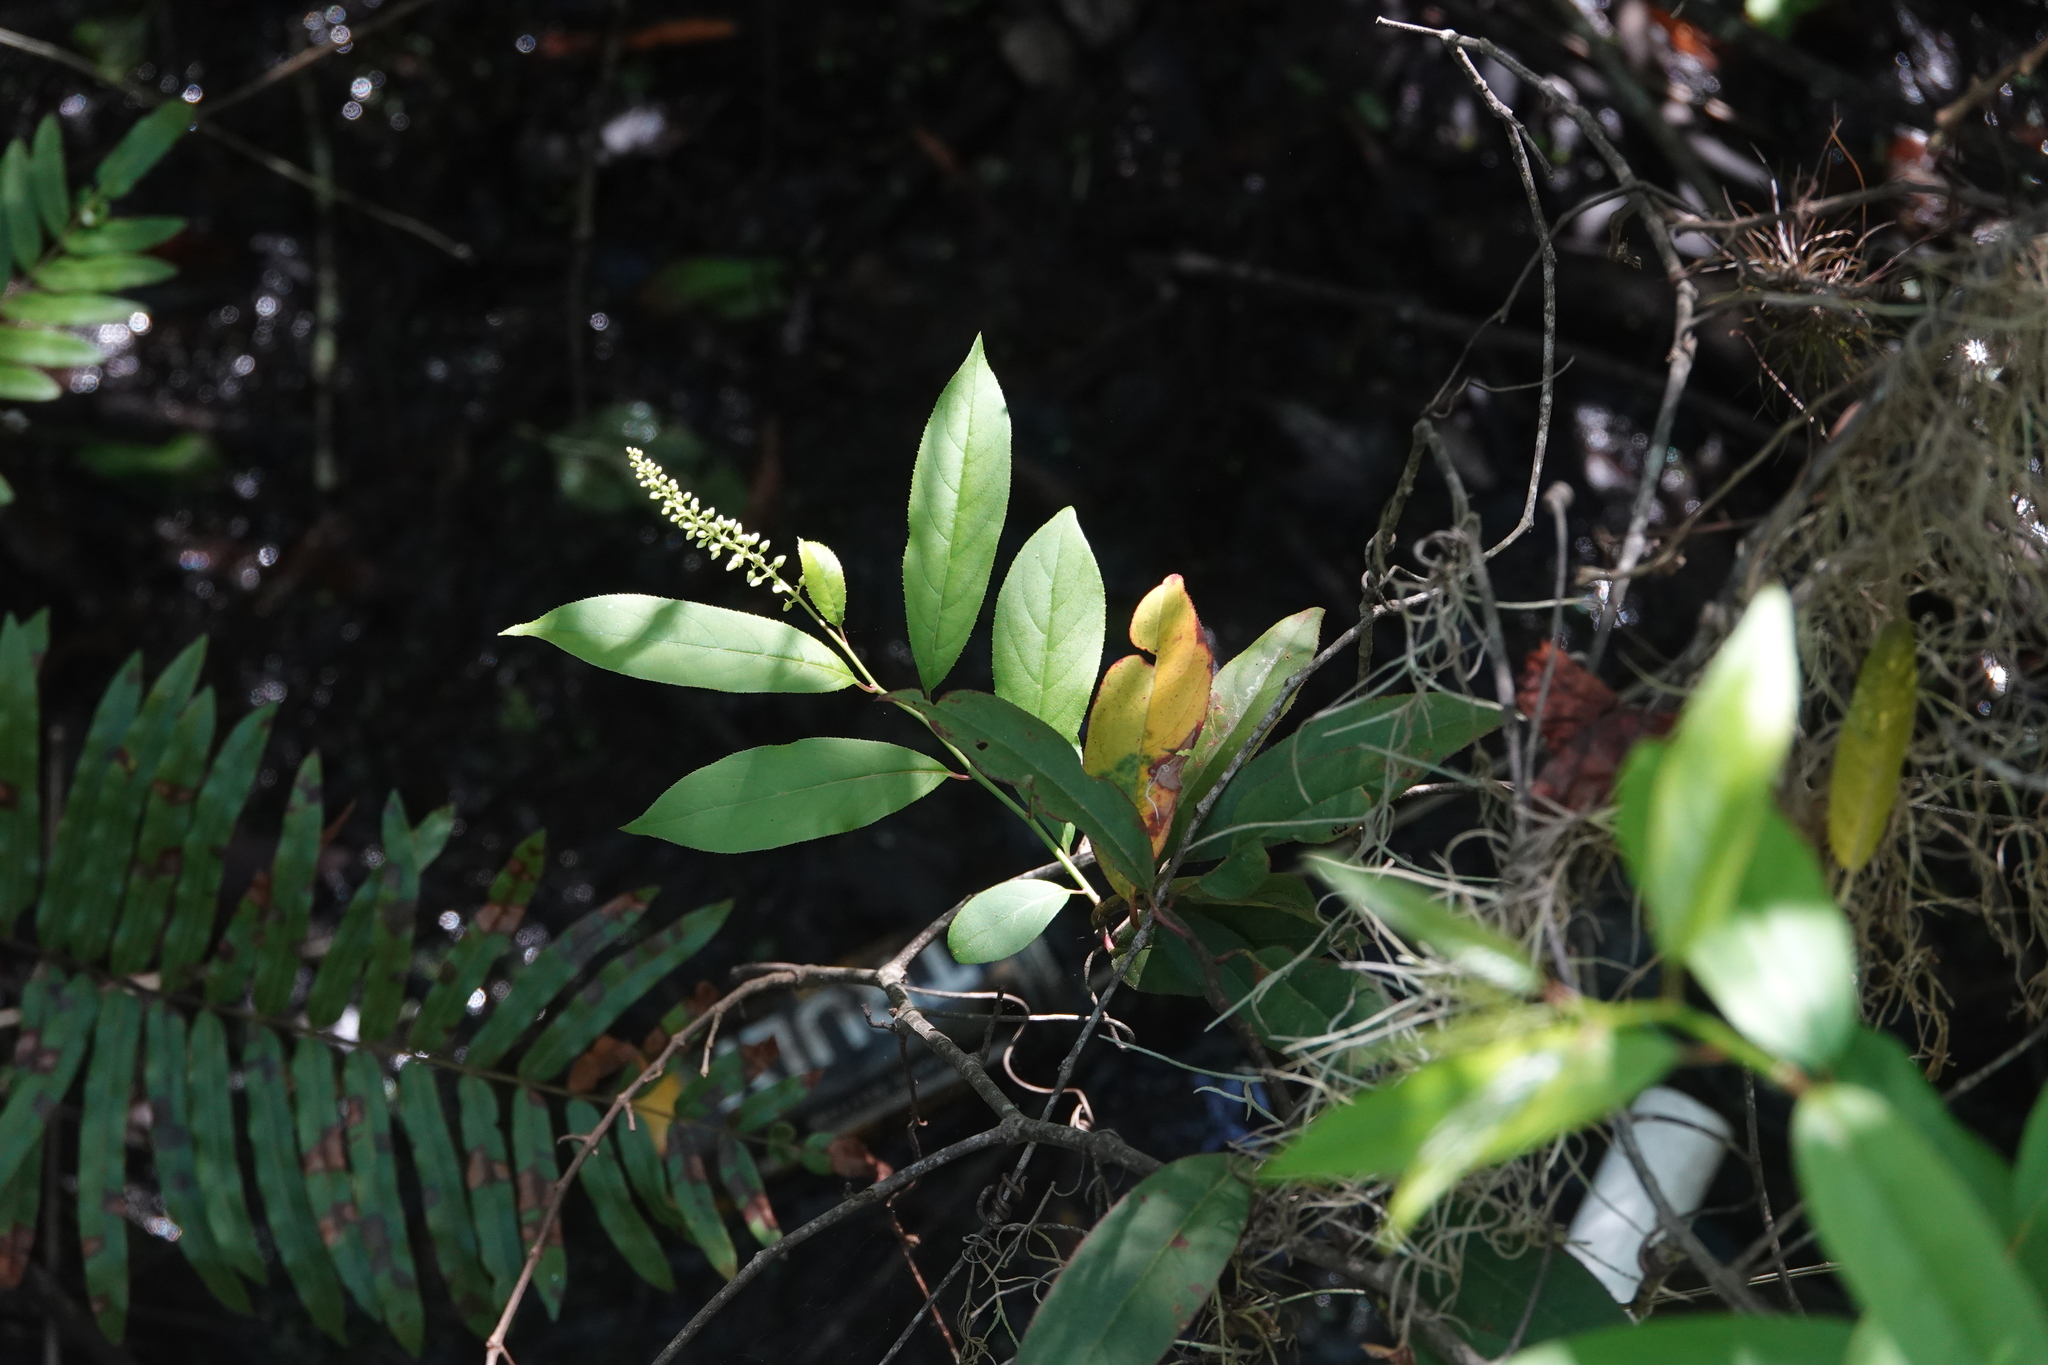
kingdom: Plantae
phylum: Tracheophyta
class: Magnoliopsida
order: Saxifragales
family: Iteaceae
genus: Itea
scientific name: Itea virginica
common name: Sweetspire
